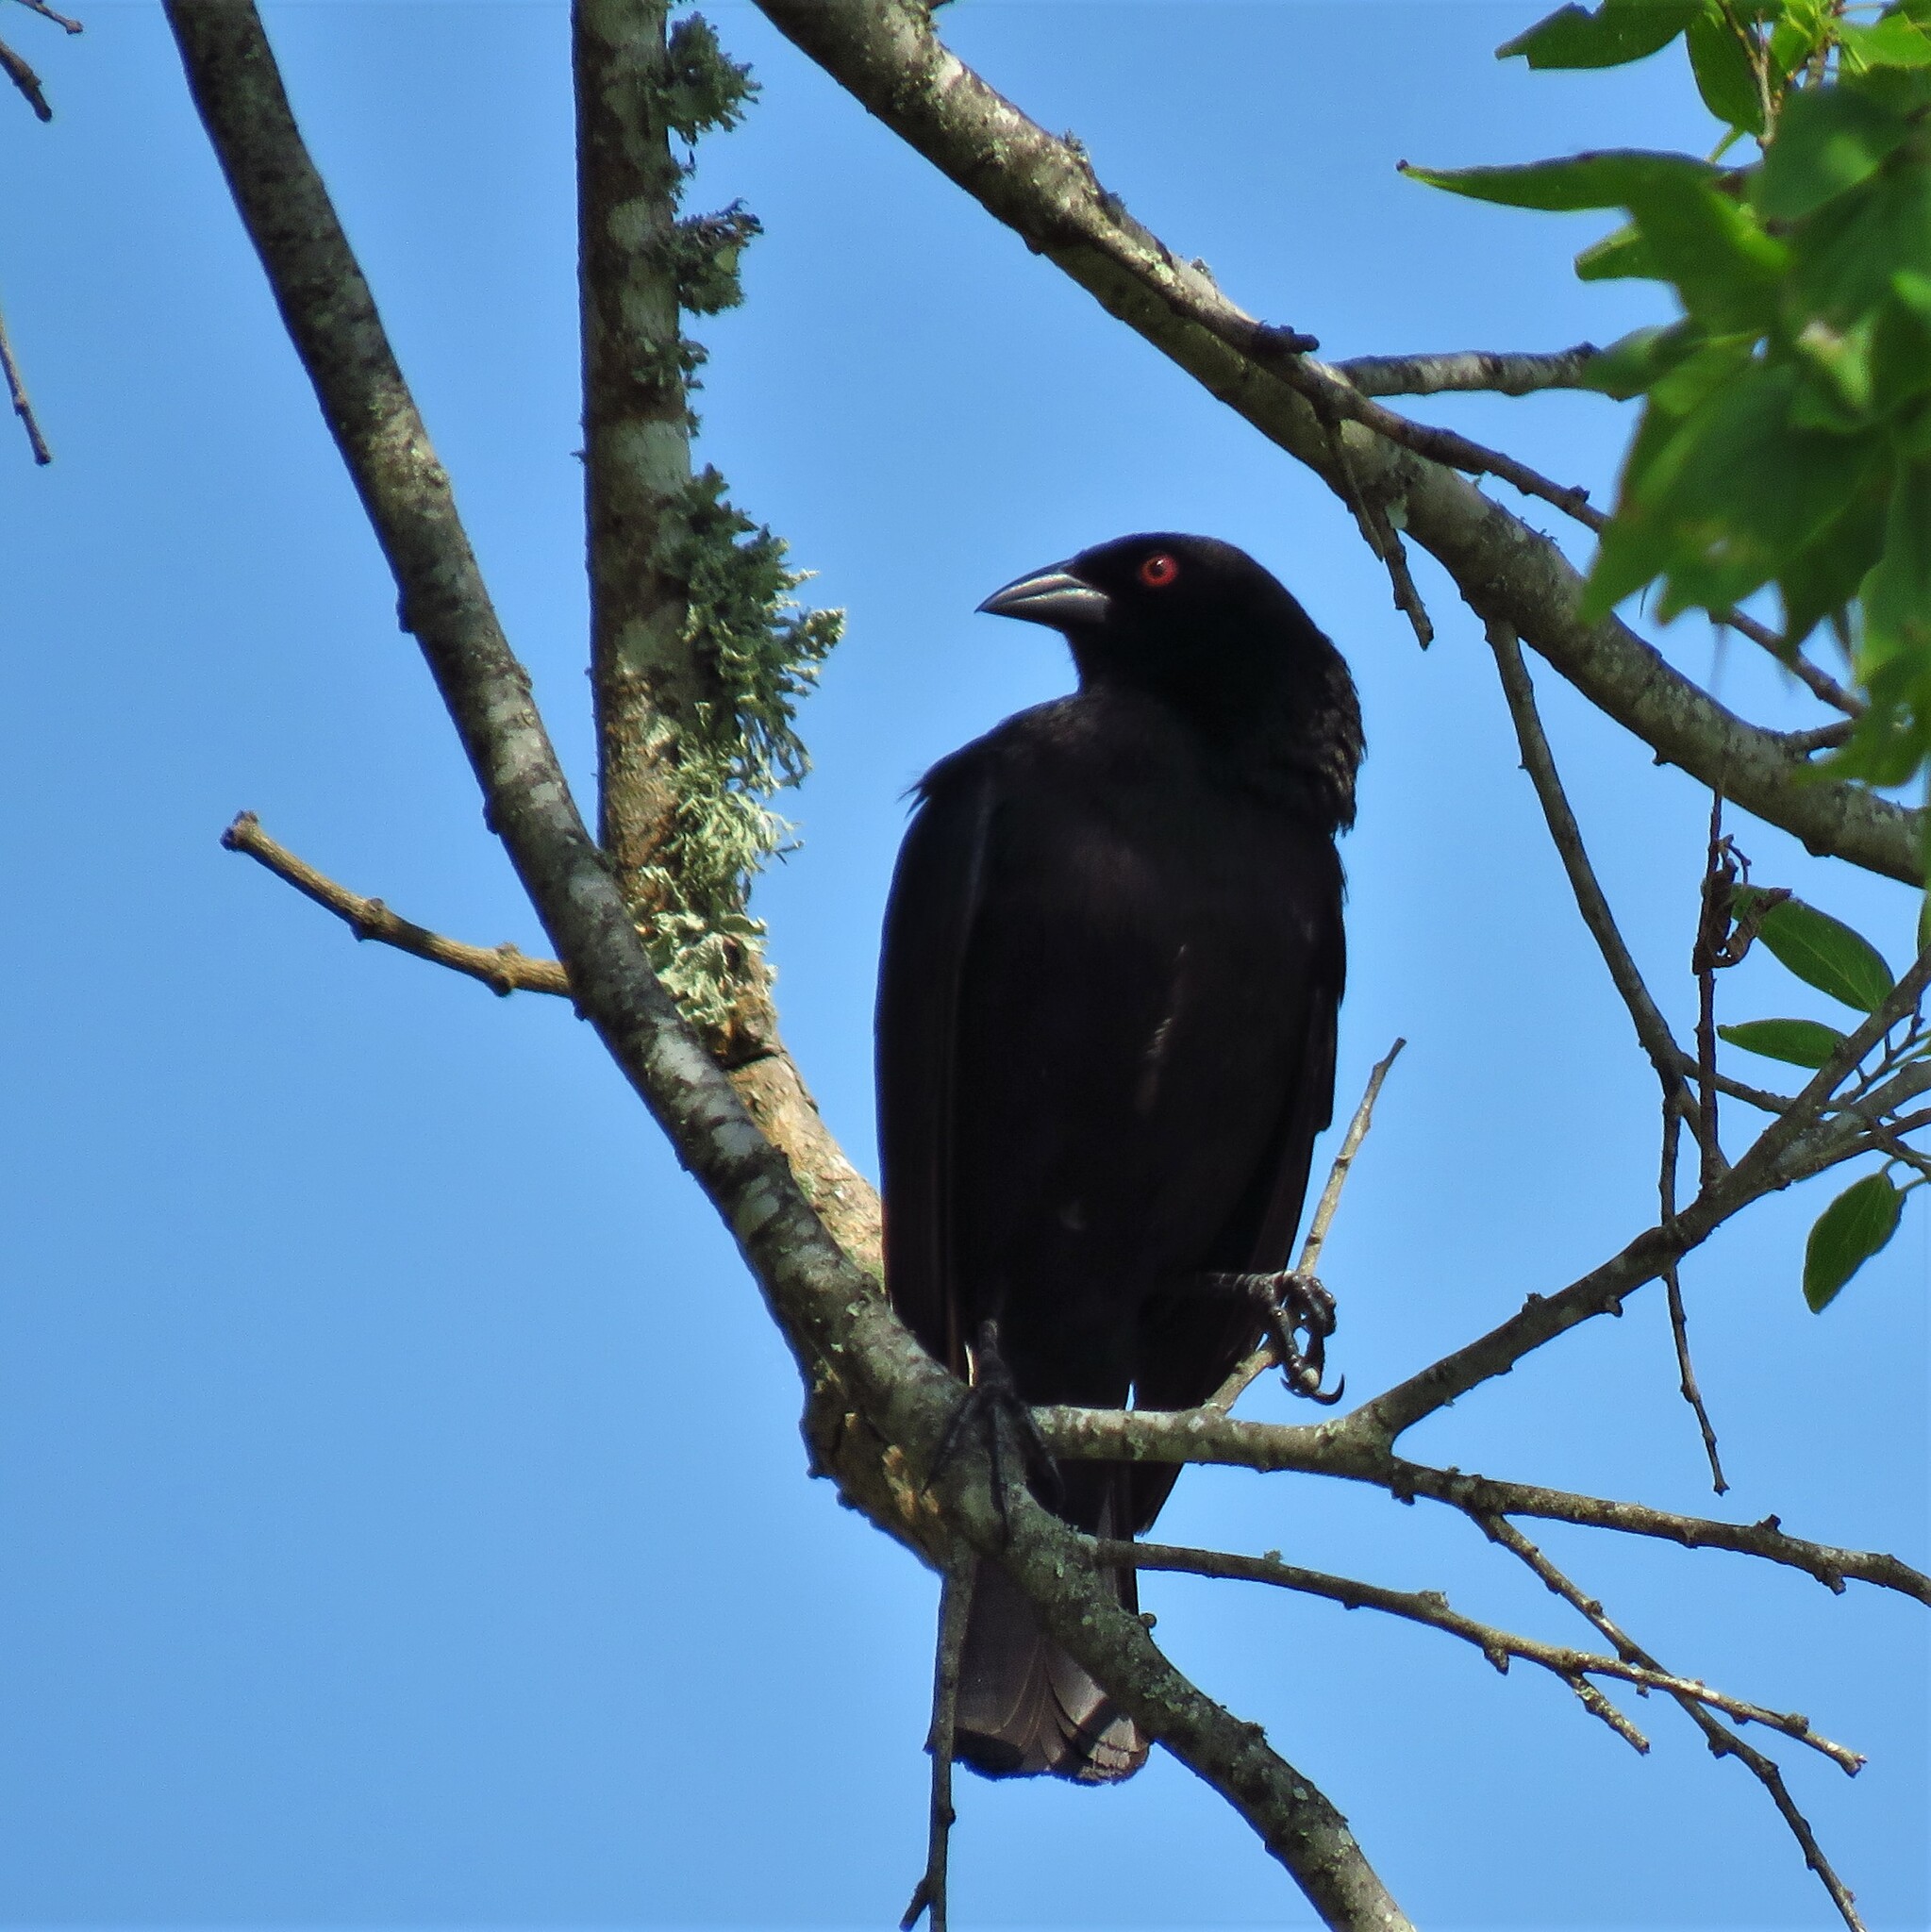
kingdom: Animalia
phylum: Chordata
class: Aves
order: Passeriformes
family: Icteridae
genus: Molothrus
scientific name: Molothrus aeneus
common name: Bronzed cowbird
